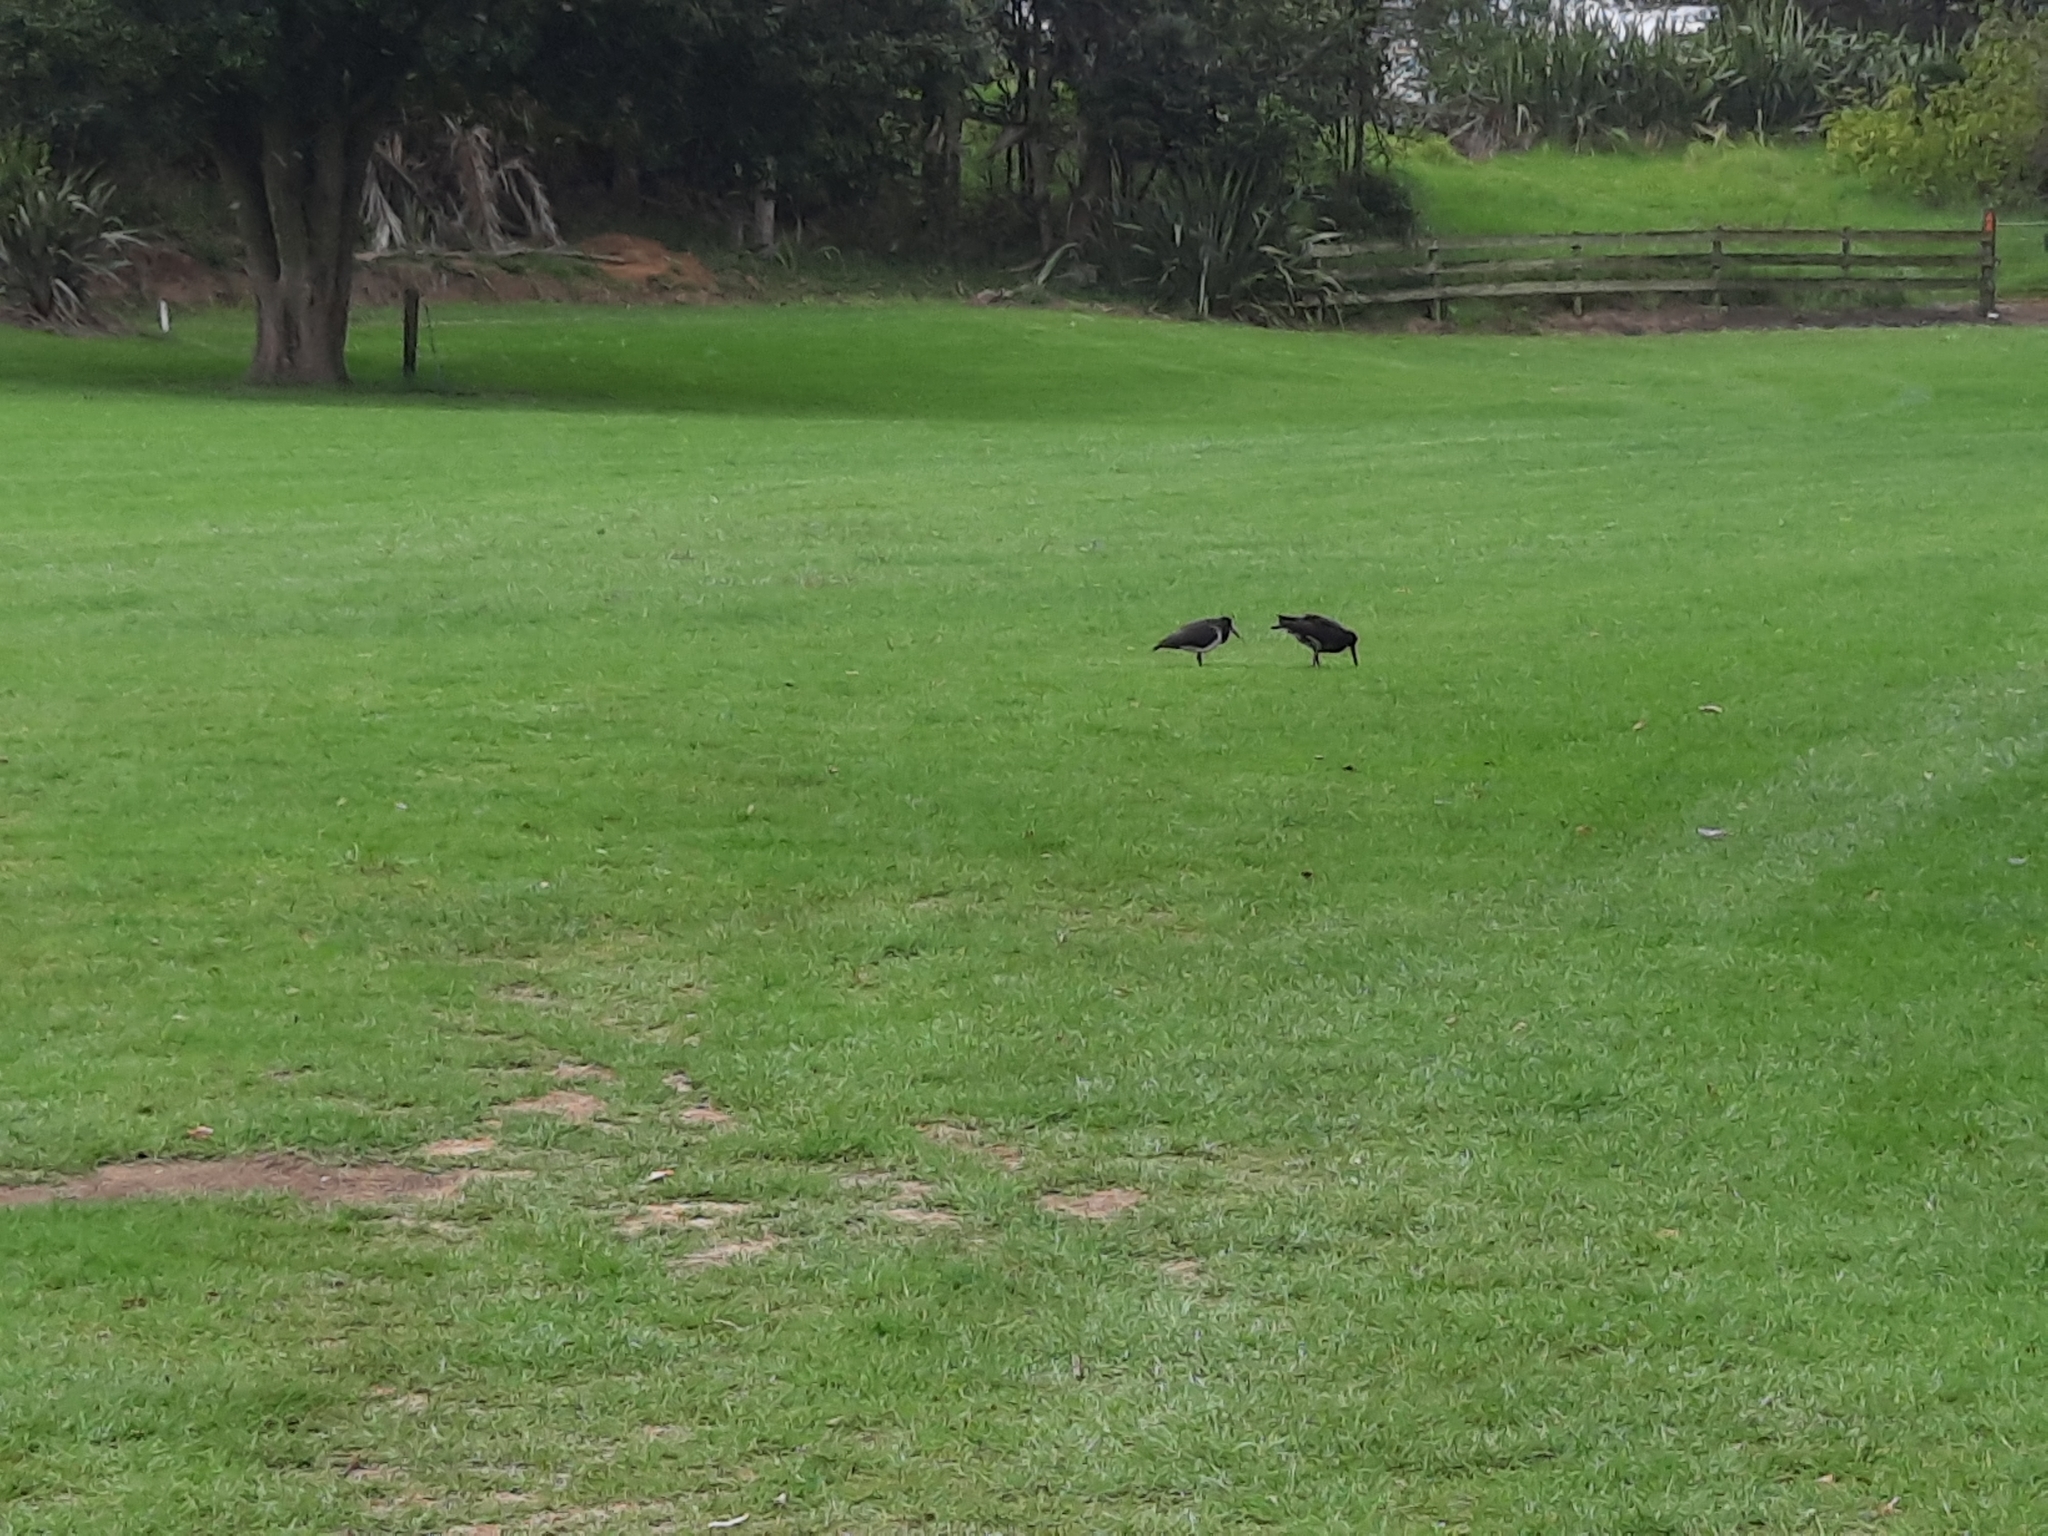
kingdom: Animalia
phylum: Chordata
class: Aves
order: Charadriiformes
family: Haematopodidae
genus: Haematopus
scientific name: Haematopus unicolor
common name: Variable oystercatcher
